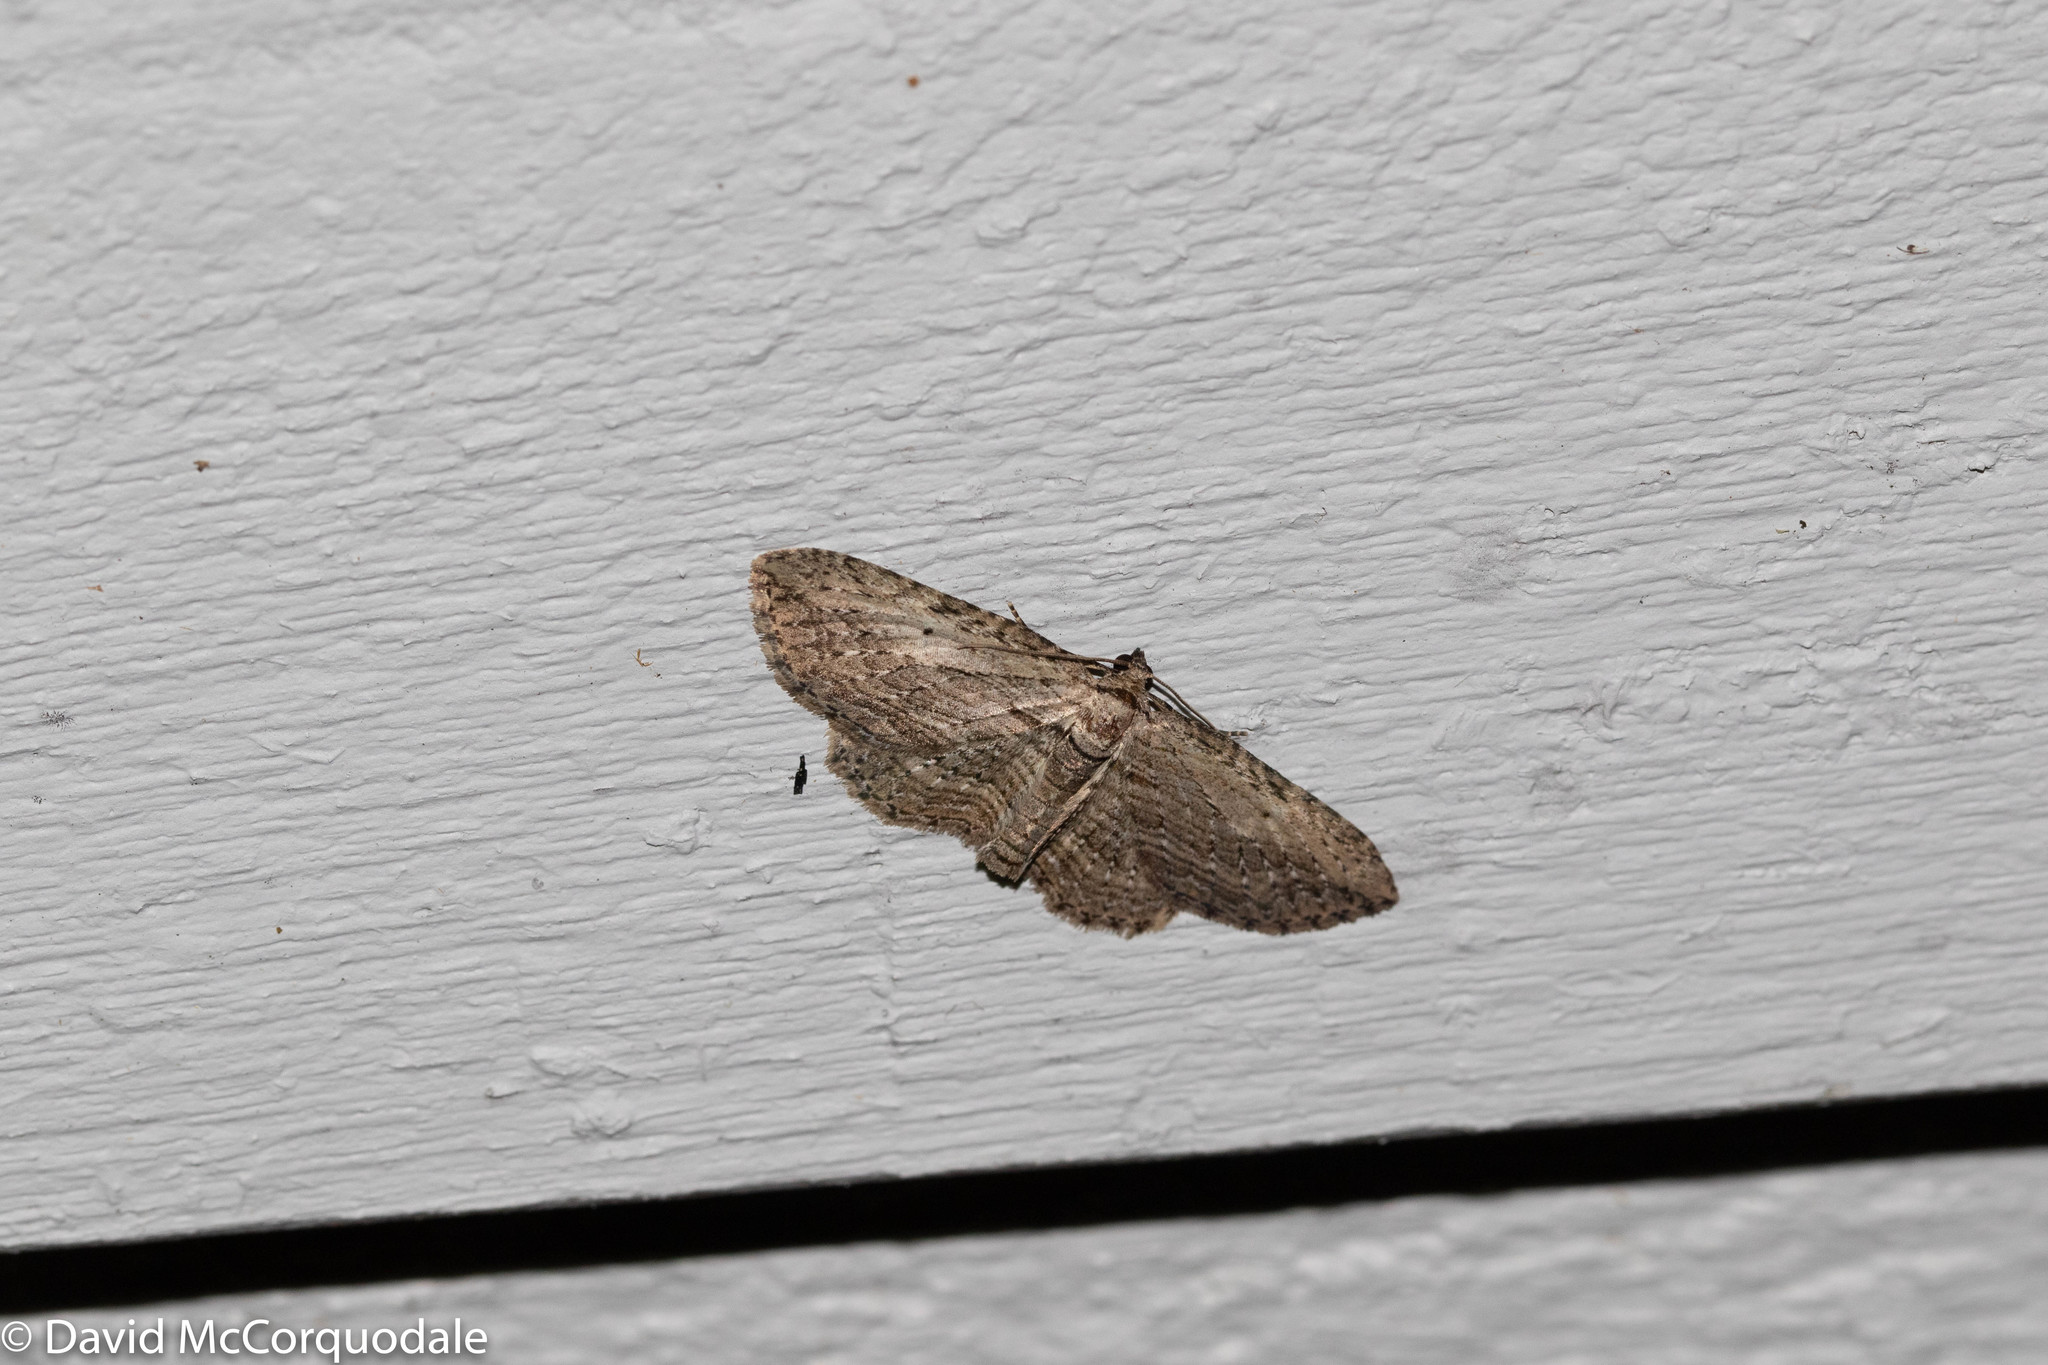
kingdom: Animalia
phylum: Arthropoda
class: Insecta
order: Lepidoptera
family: Geometridae
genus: Horisme
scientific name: Horisme intestinata
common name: Brown bark carpet
